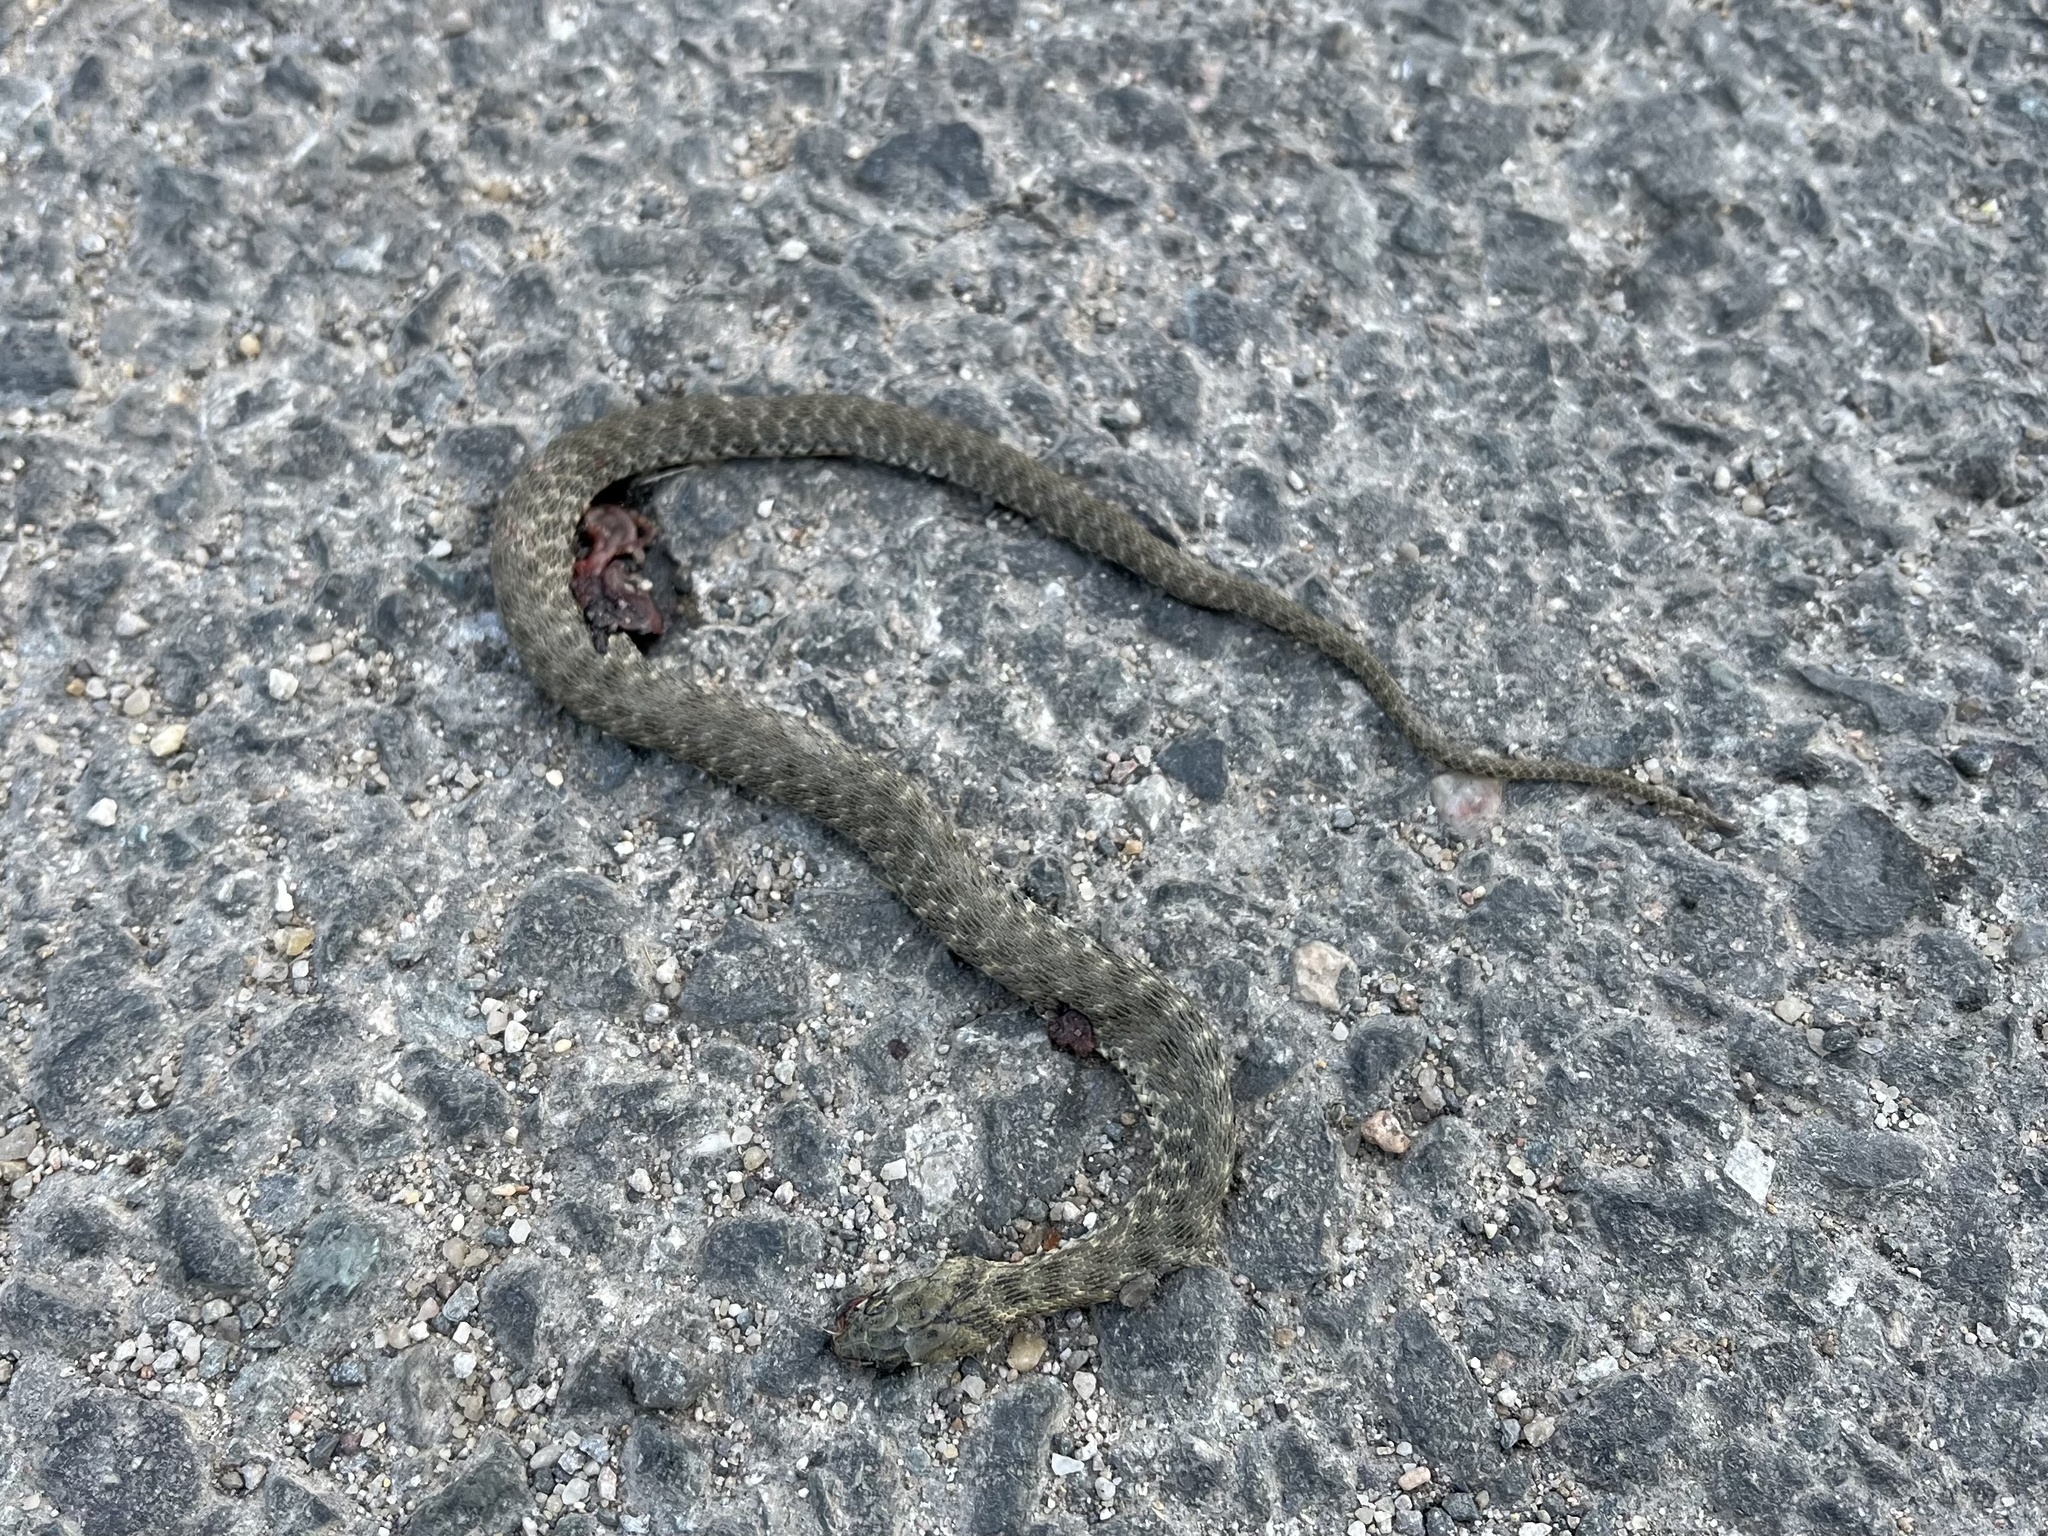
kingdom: Animalia
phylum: Chordata
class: Squamata
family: Colubridae
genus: Natrix
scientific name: Natrix tessellata
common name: Dice snake
